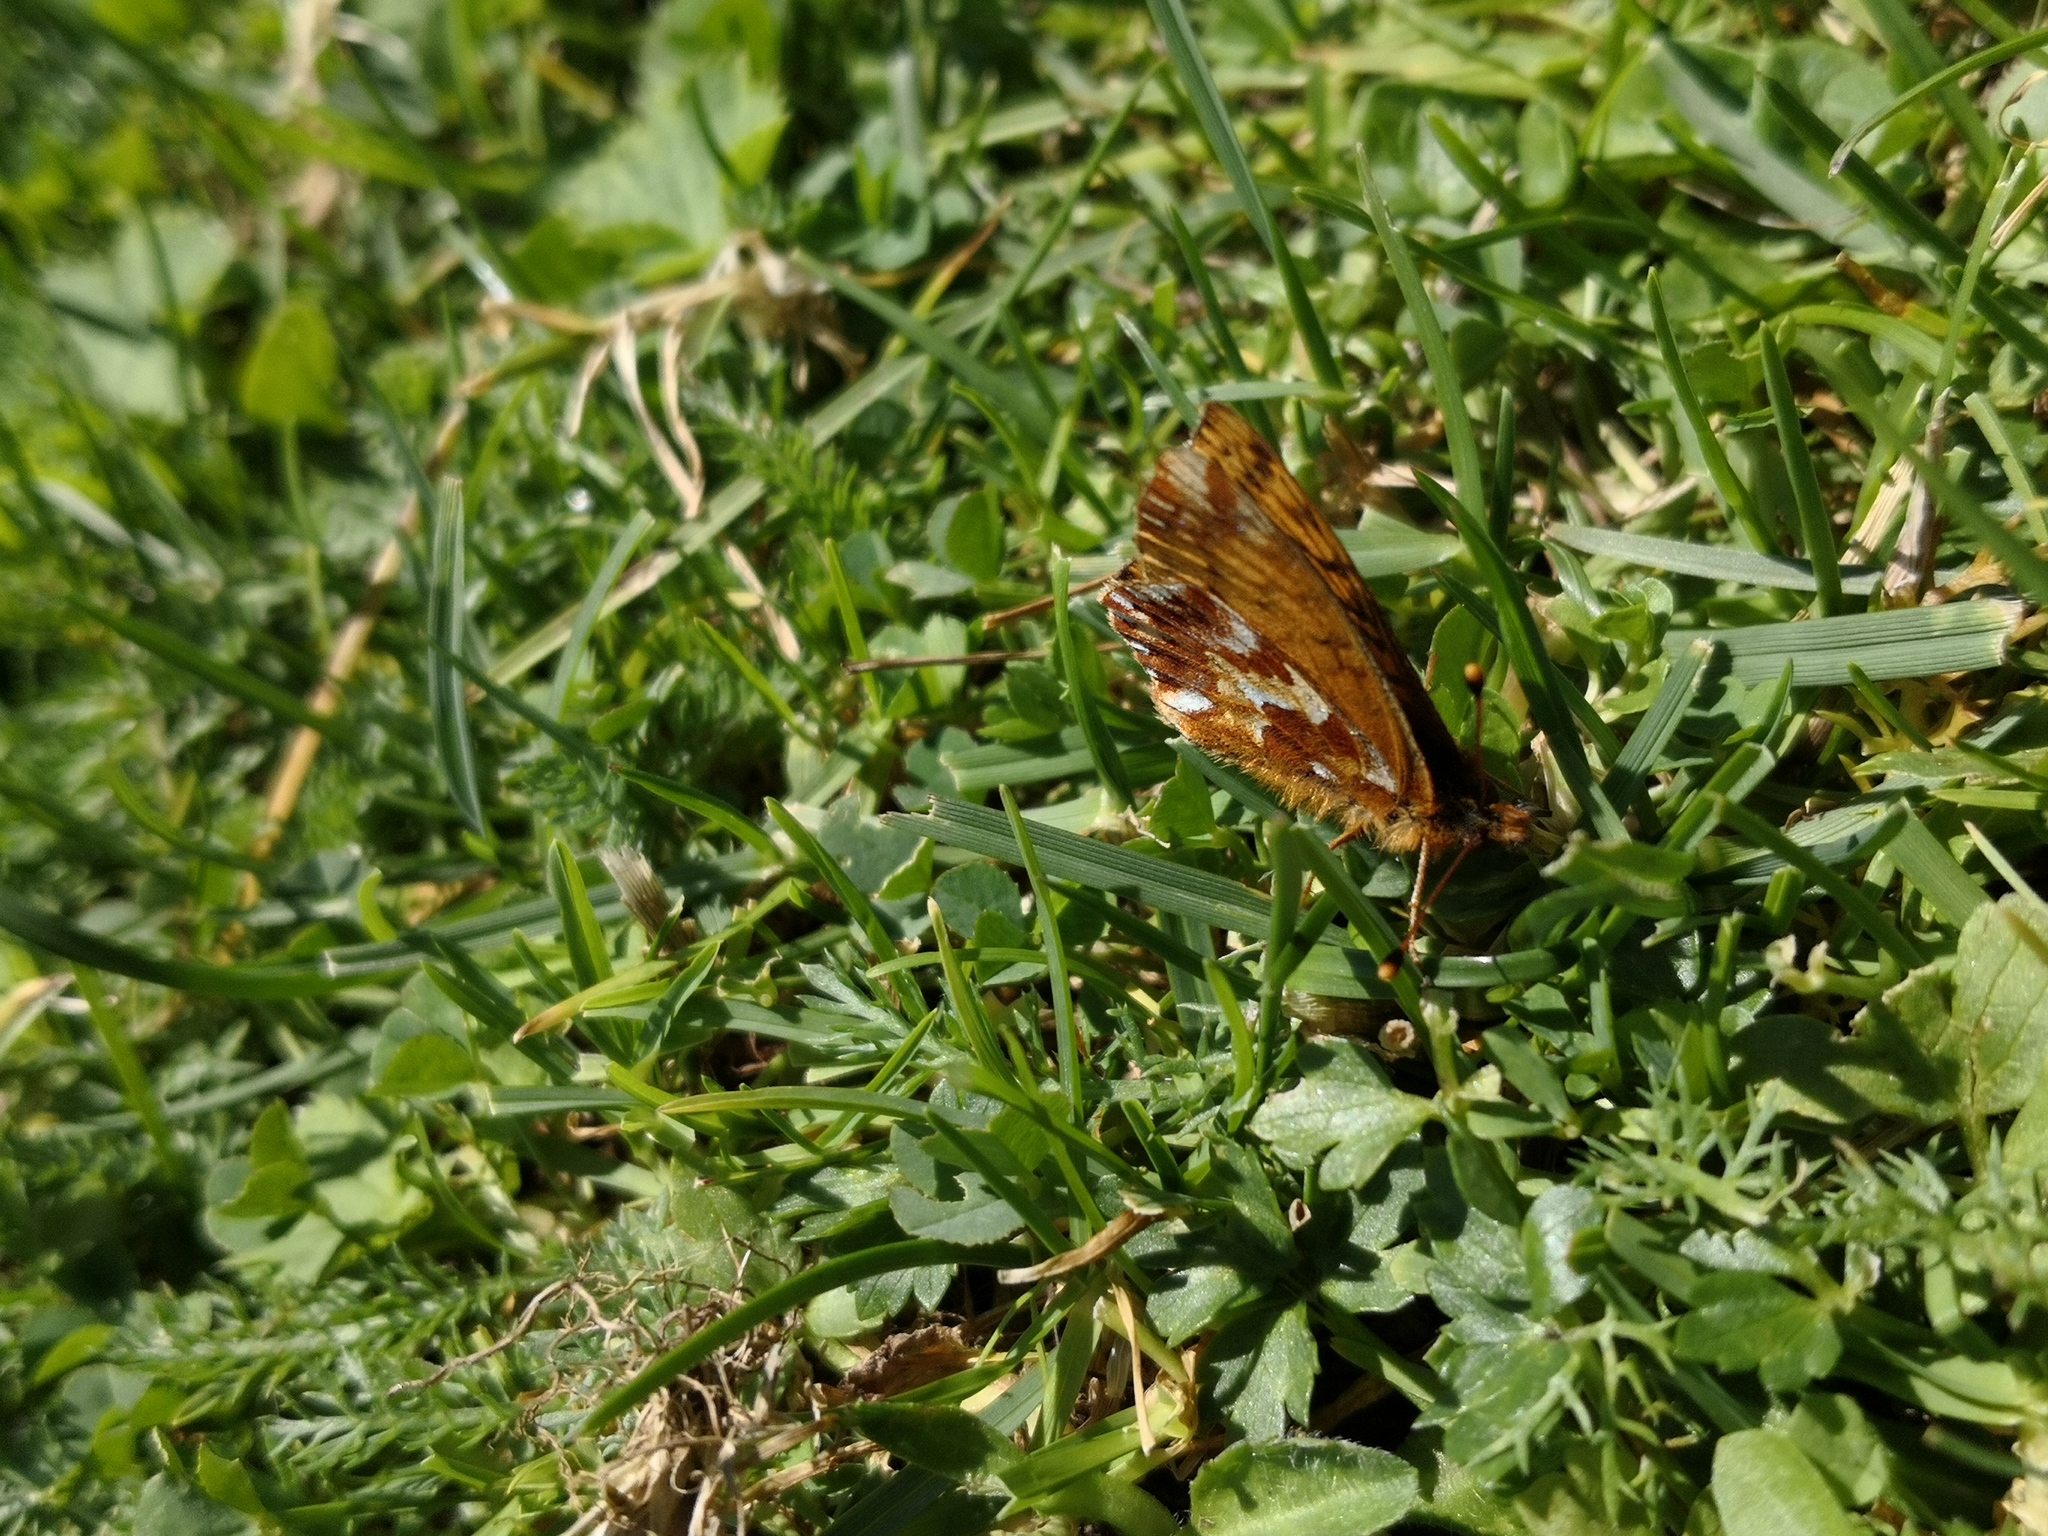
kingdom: Animalia
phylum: Arthropoda
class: Insecta
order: Lepidoptera
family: Nymphalidae
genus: Boloria
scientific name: Boloria pales
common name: Shepherd's fritillary
